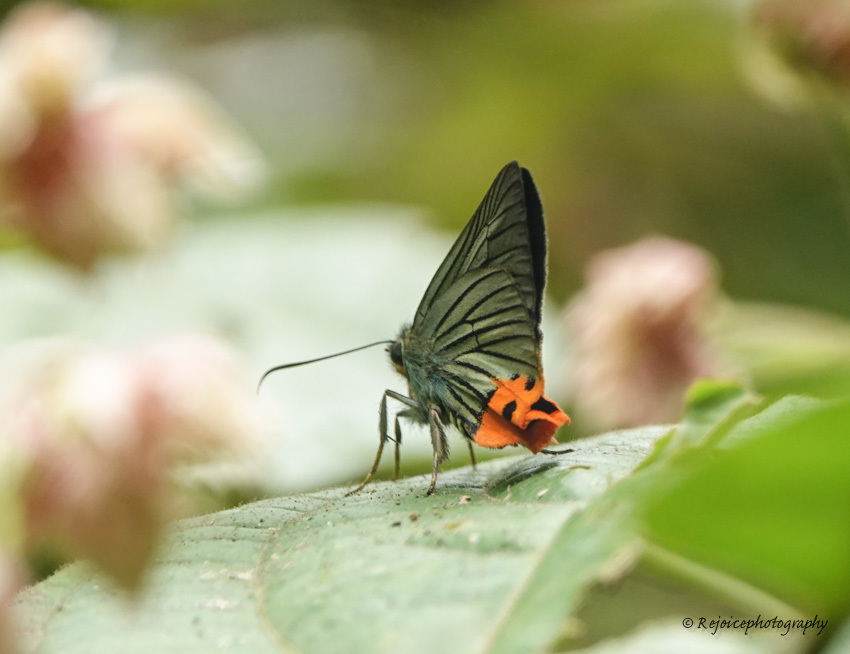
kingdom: Animalia
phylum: Arthropoda
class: Insecta
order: Lepidoptera
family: Hesperiidae
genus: Choaspes
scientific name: Choaspes benjaminii
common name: Indian awlking
